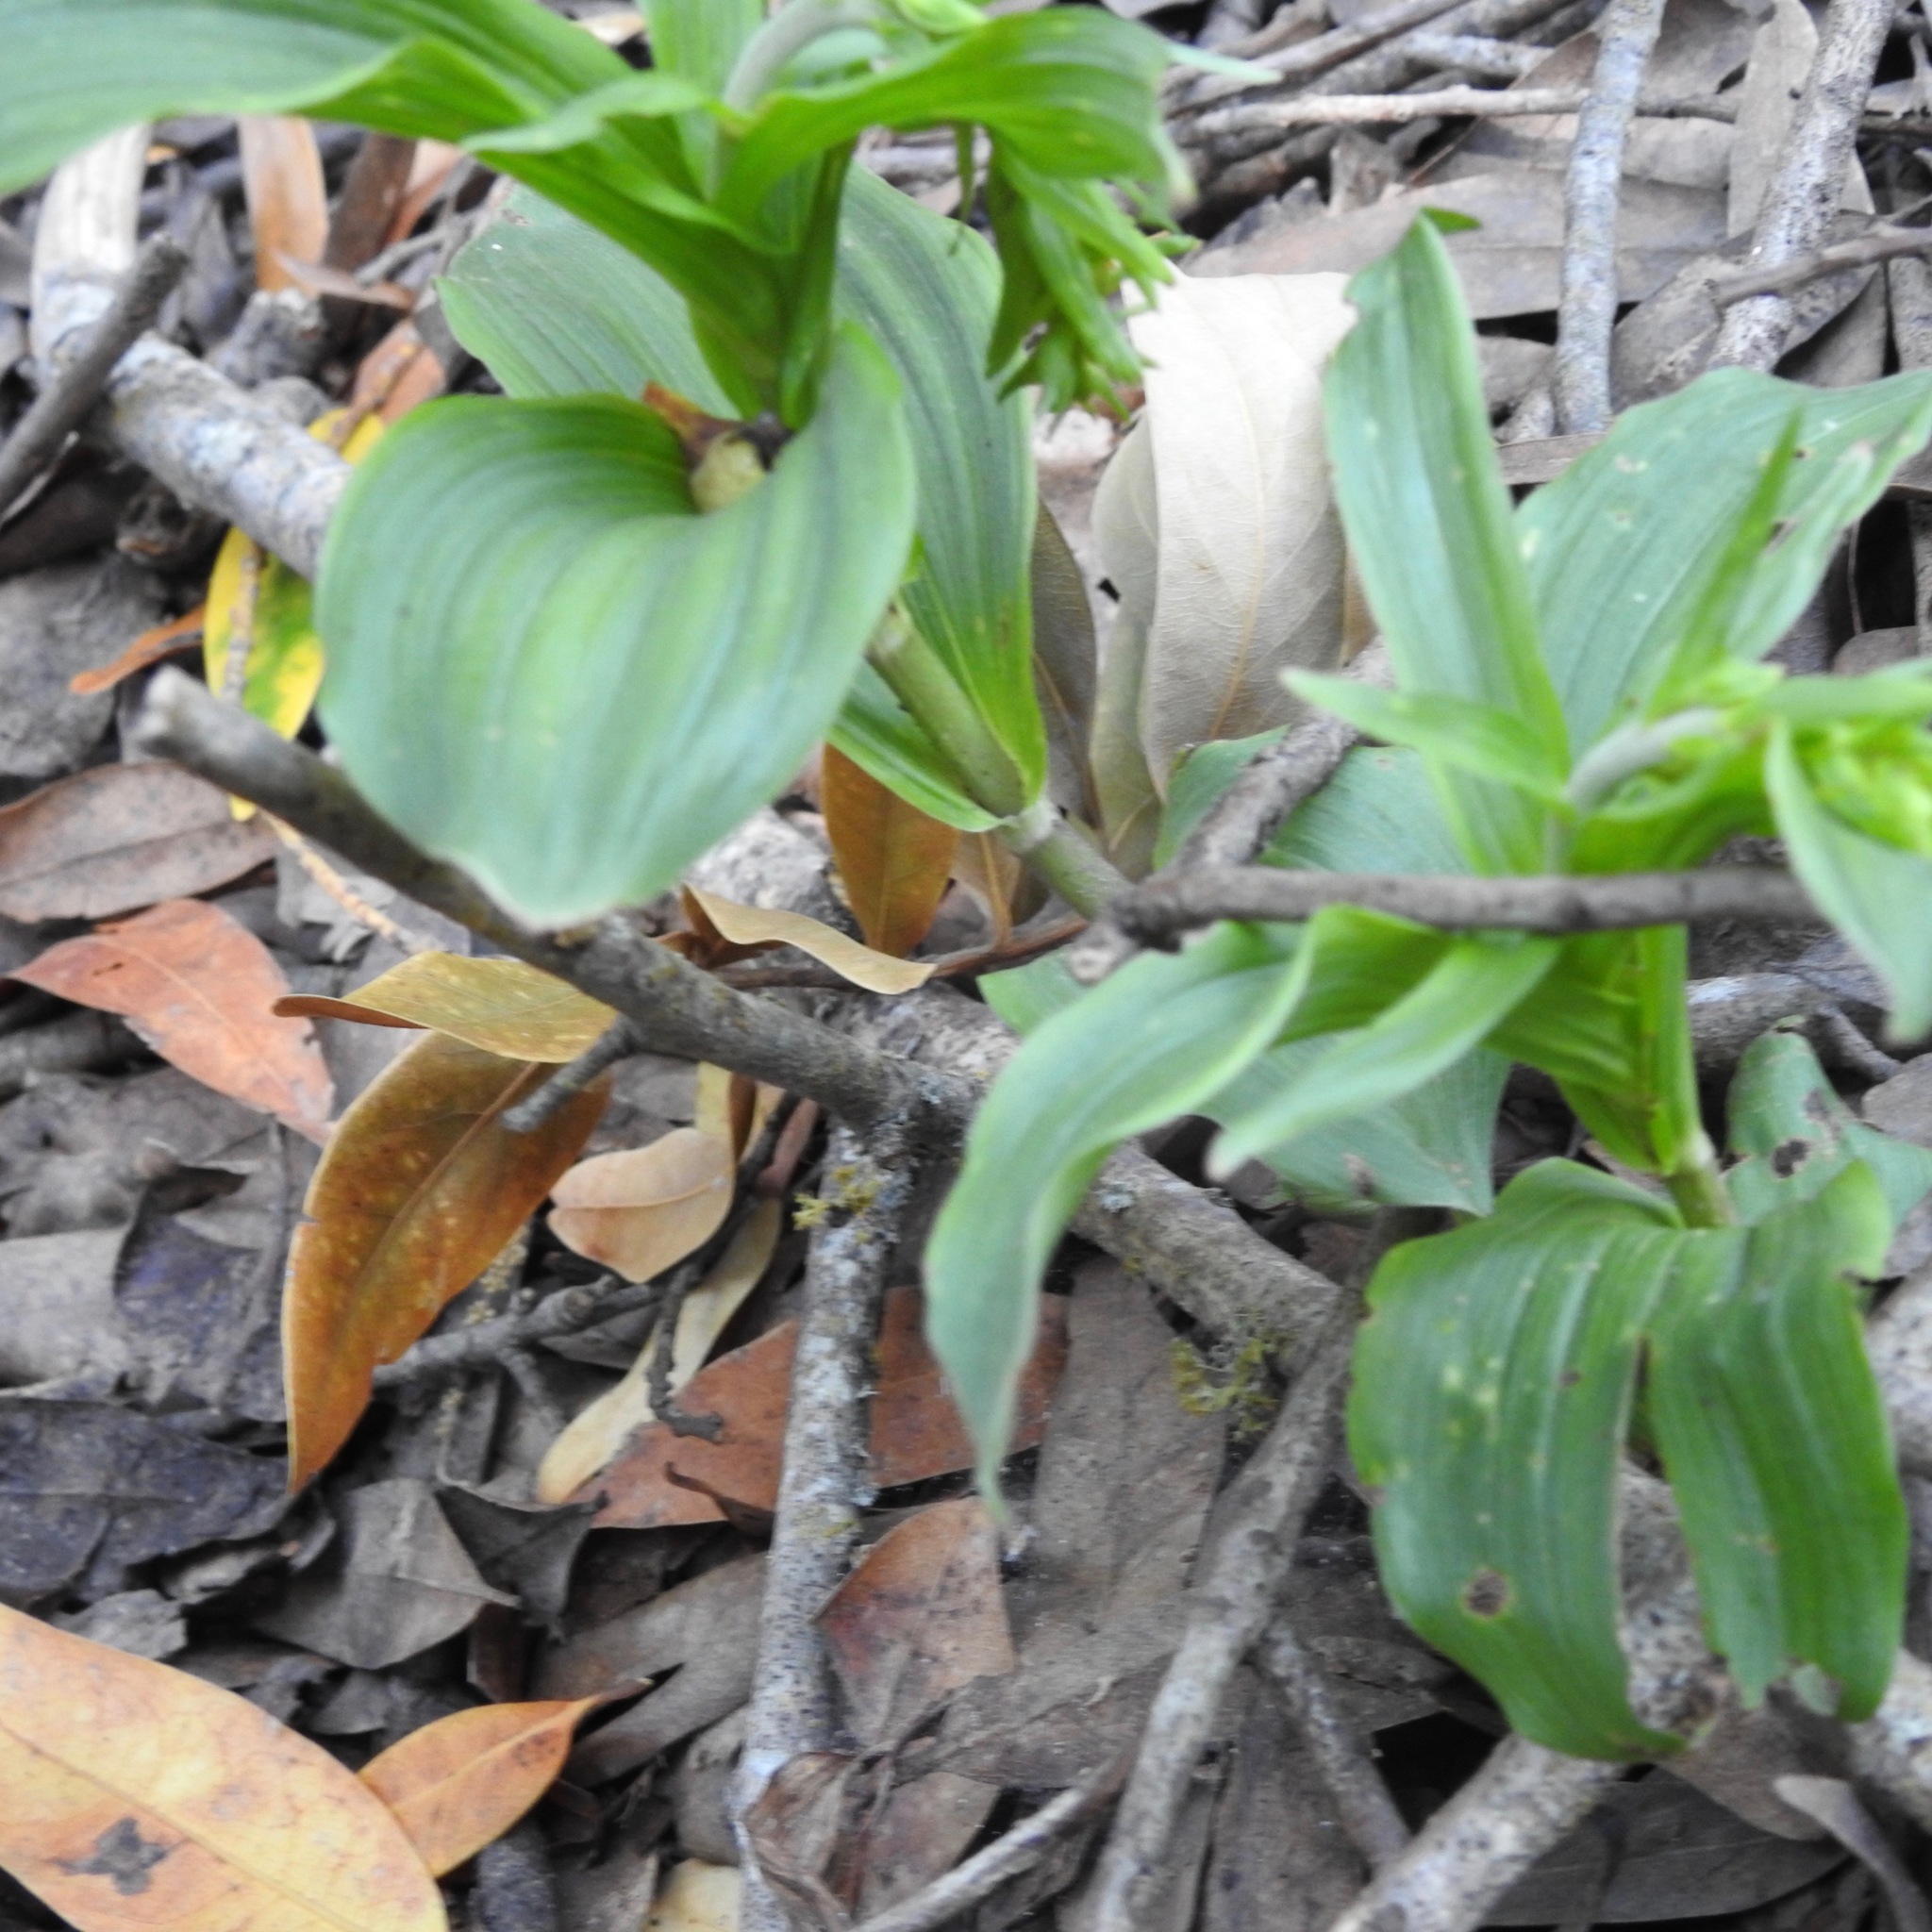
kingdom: Plantae
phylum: Tracheophyta
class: Liliopsida
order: Asparagales
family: Orchidaceae
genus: Epipactis
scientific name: Epipactis helleborine
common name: Broad-leaved helleborine
